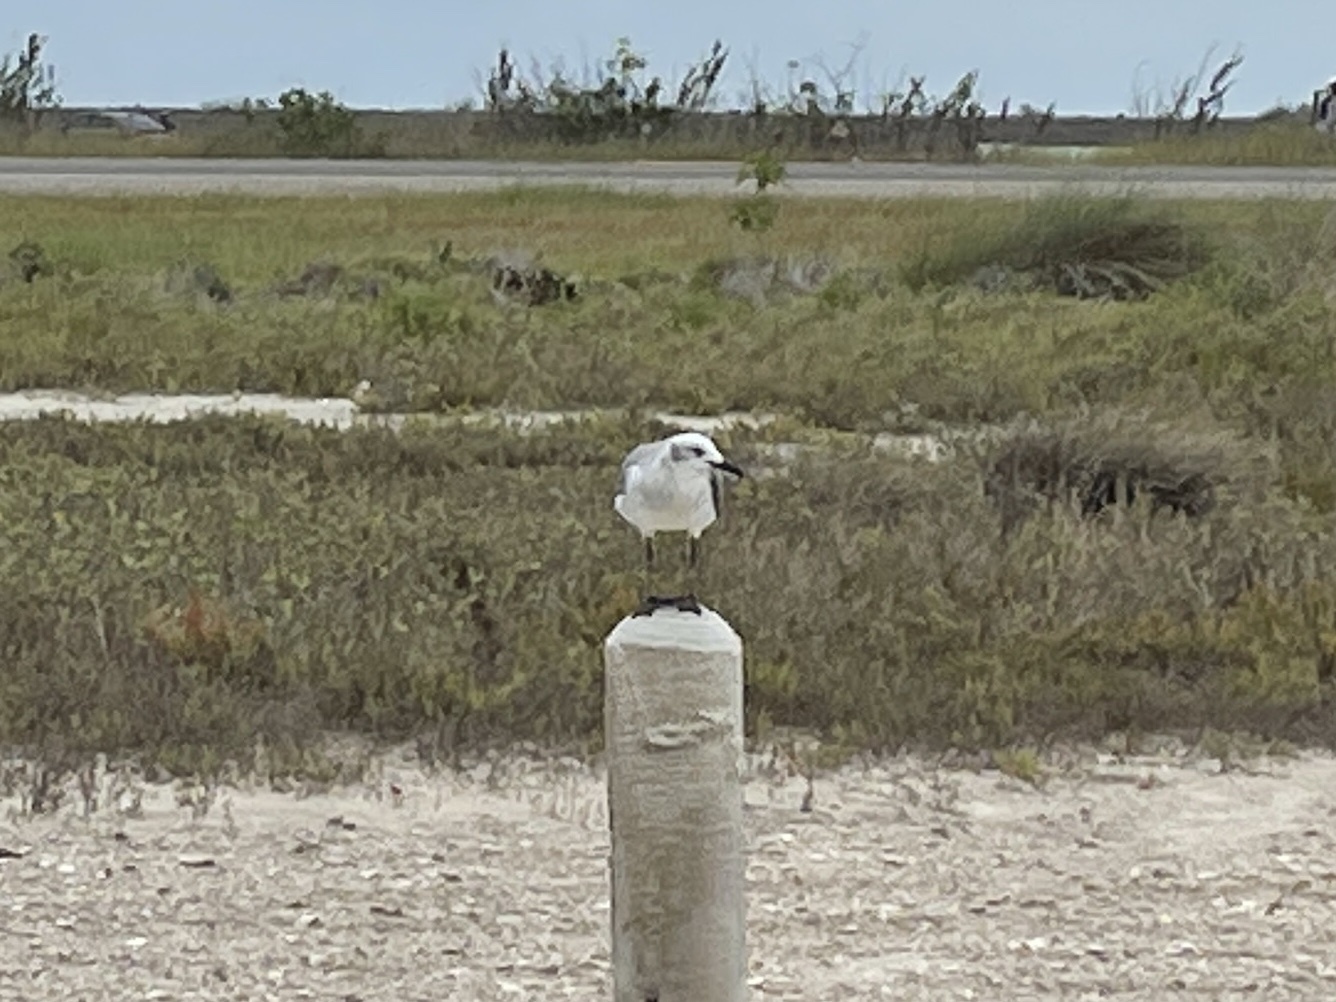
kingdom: Animalia
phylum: Chordata
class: Aves
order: Charadriiformes
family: Laridae
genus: Leucophaeus
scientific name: Leucophaeus atricilla
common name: Laughing gull
